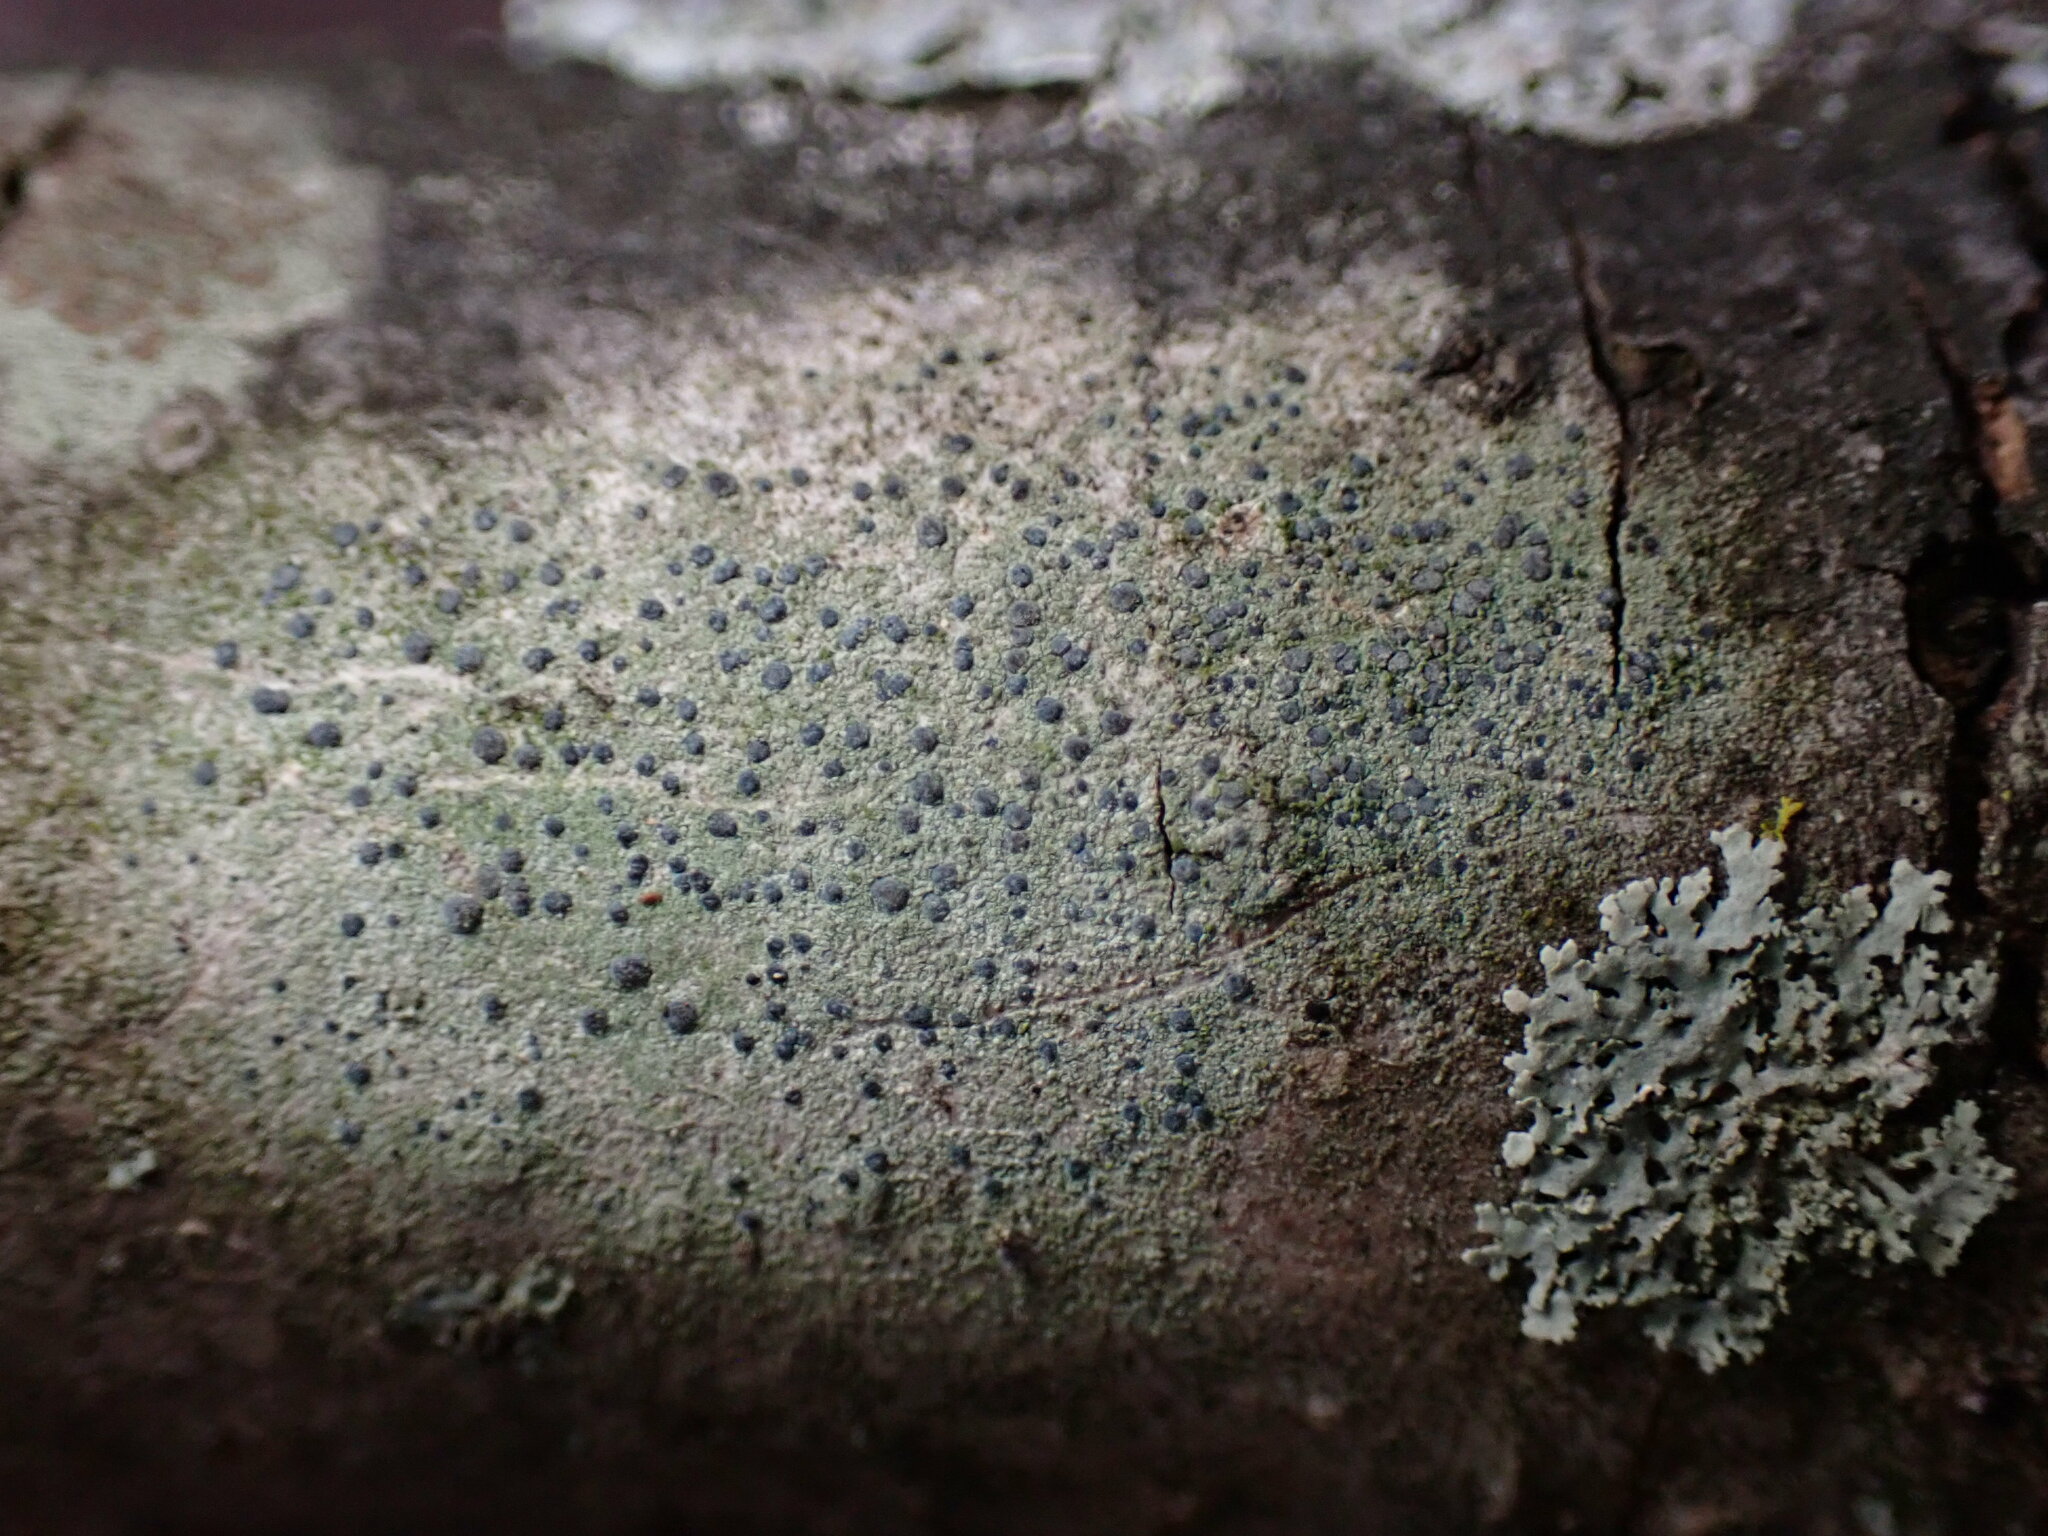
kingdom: Fungi
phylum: Ascomycota
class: Arthoniomycetes
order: Arthoniales
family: Chrysotrichaceae
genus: Chrysothrix
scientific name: Chrysothrix caesia
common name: Frosted comma lichen
